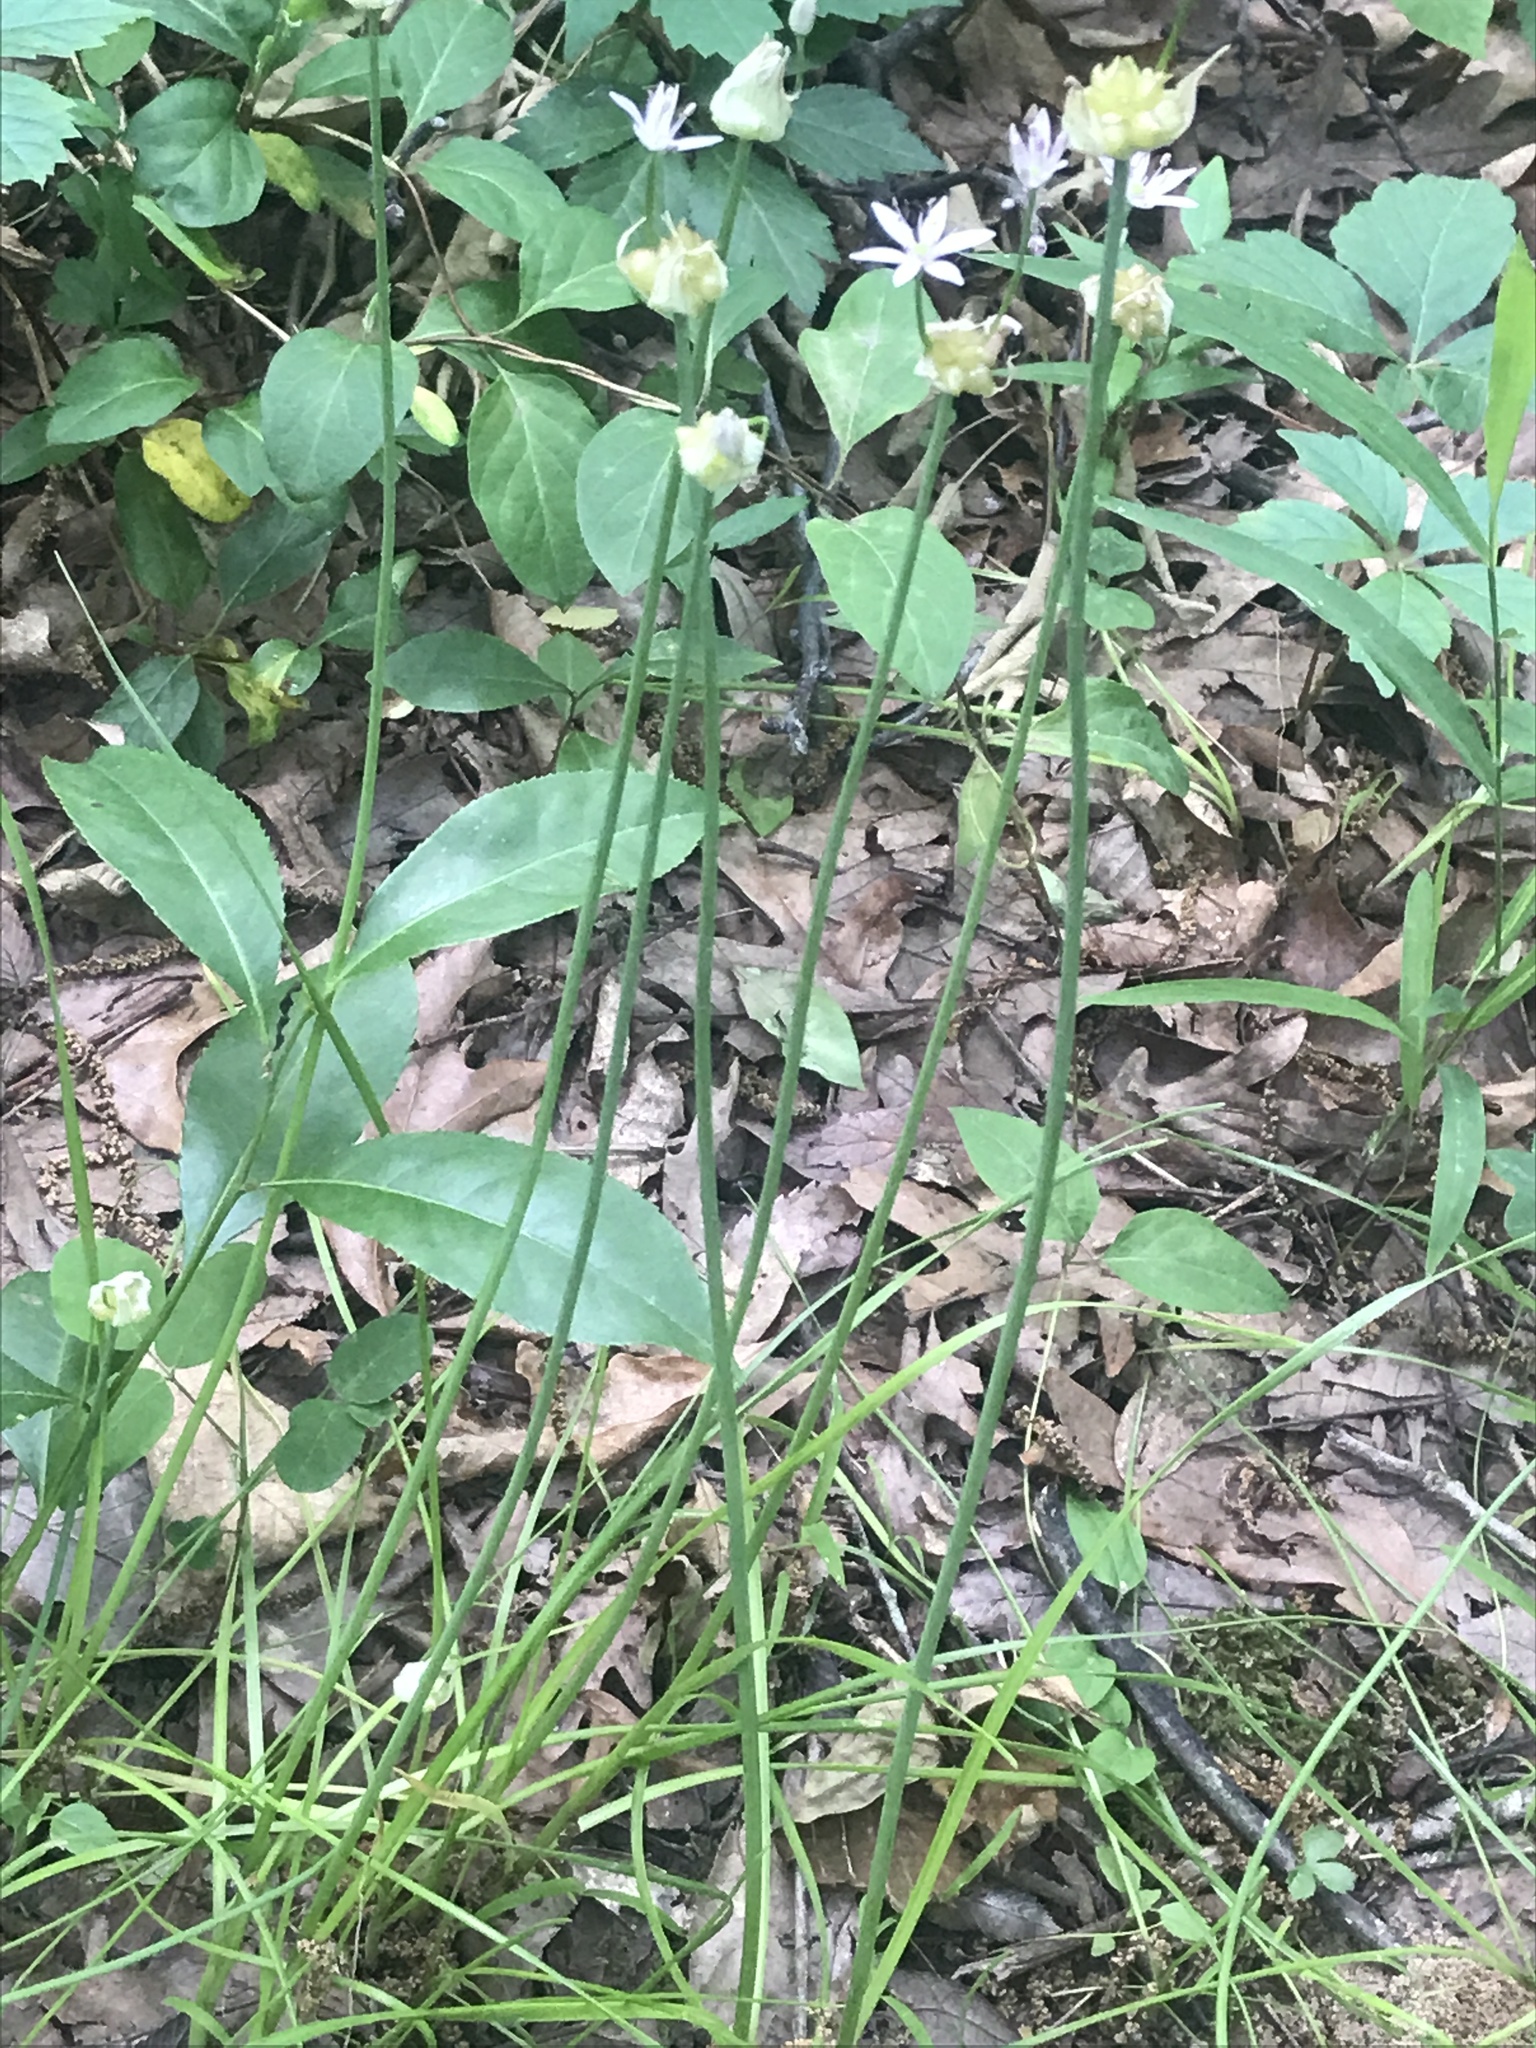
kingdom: Plantae
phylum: Tracheophyta
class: Liliopsida
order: Asparagales
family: Amaryllidaceae
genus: Allium
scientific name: Allium canadense
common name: Meadow garlic
